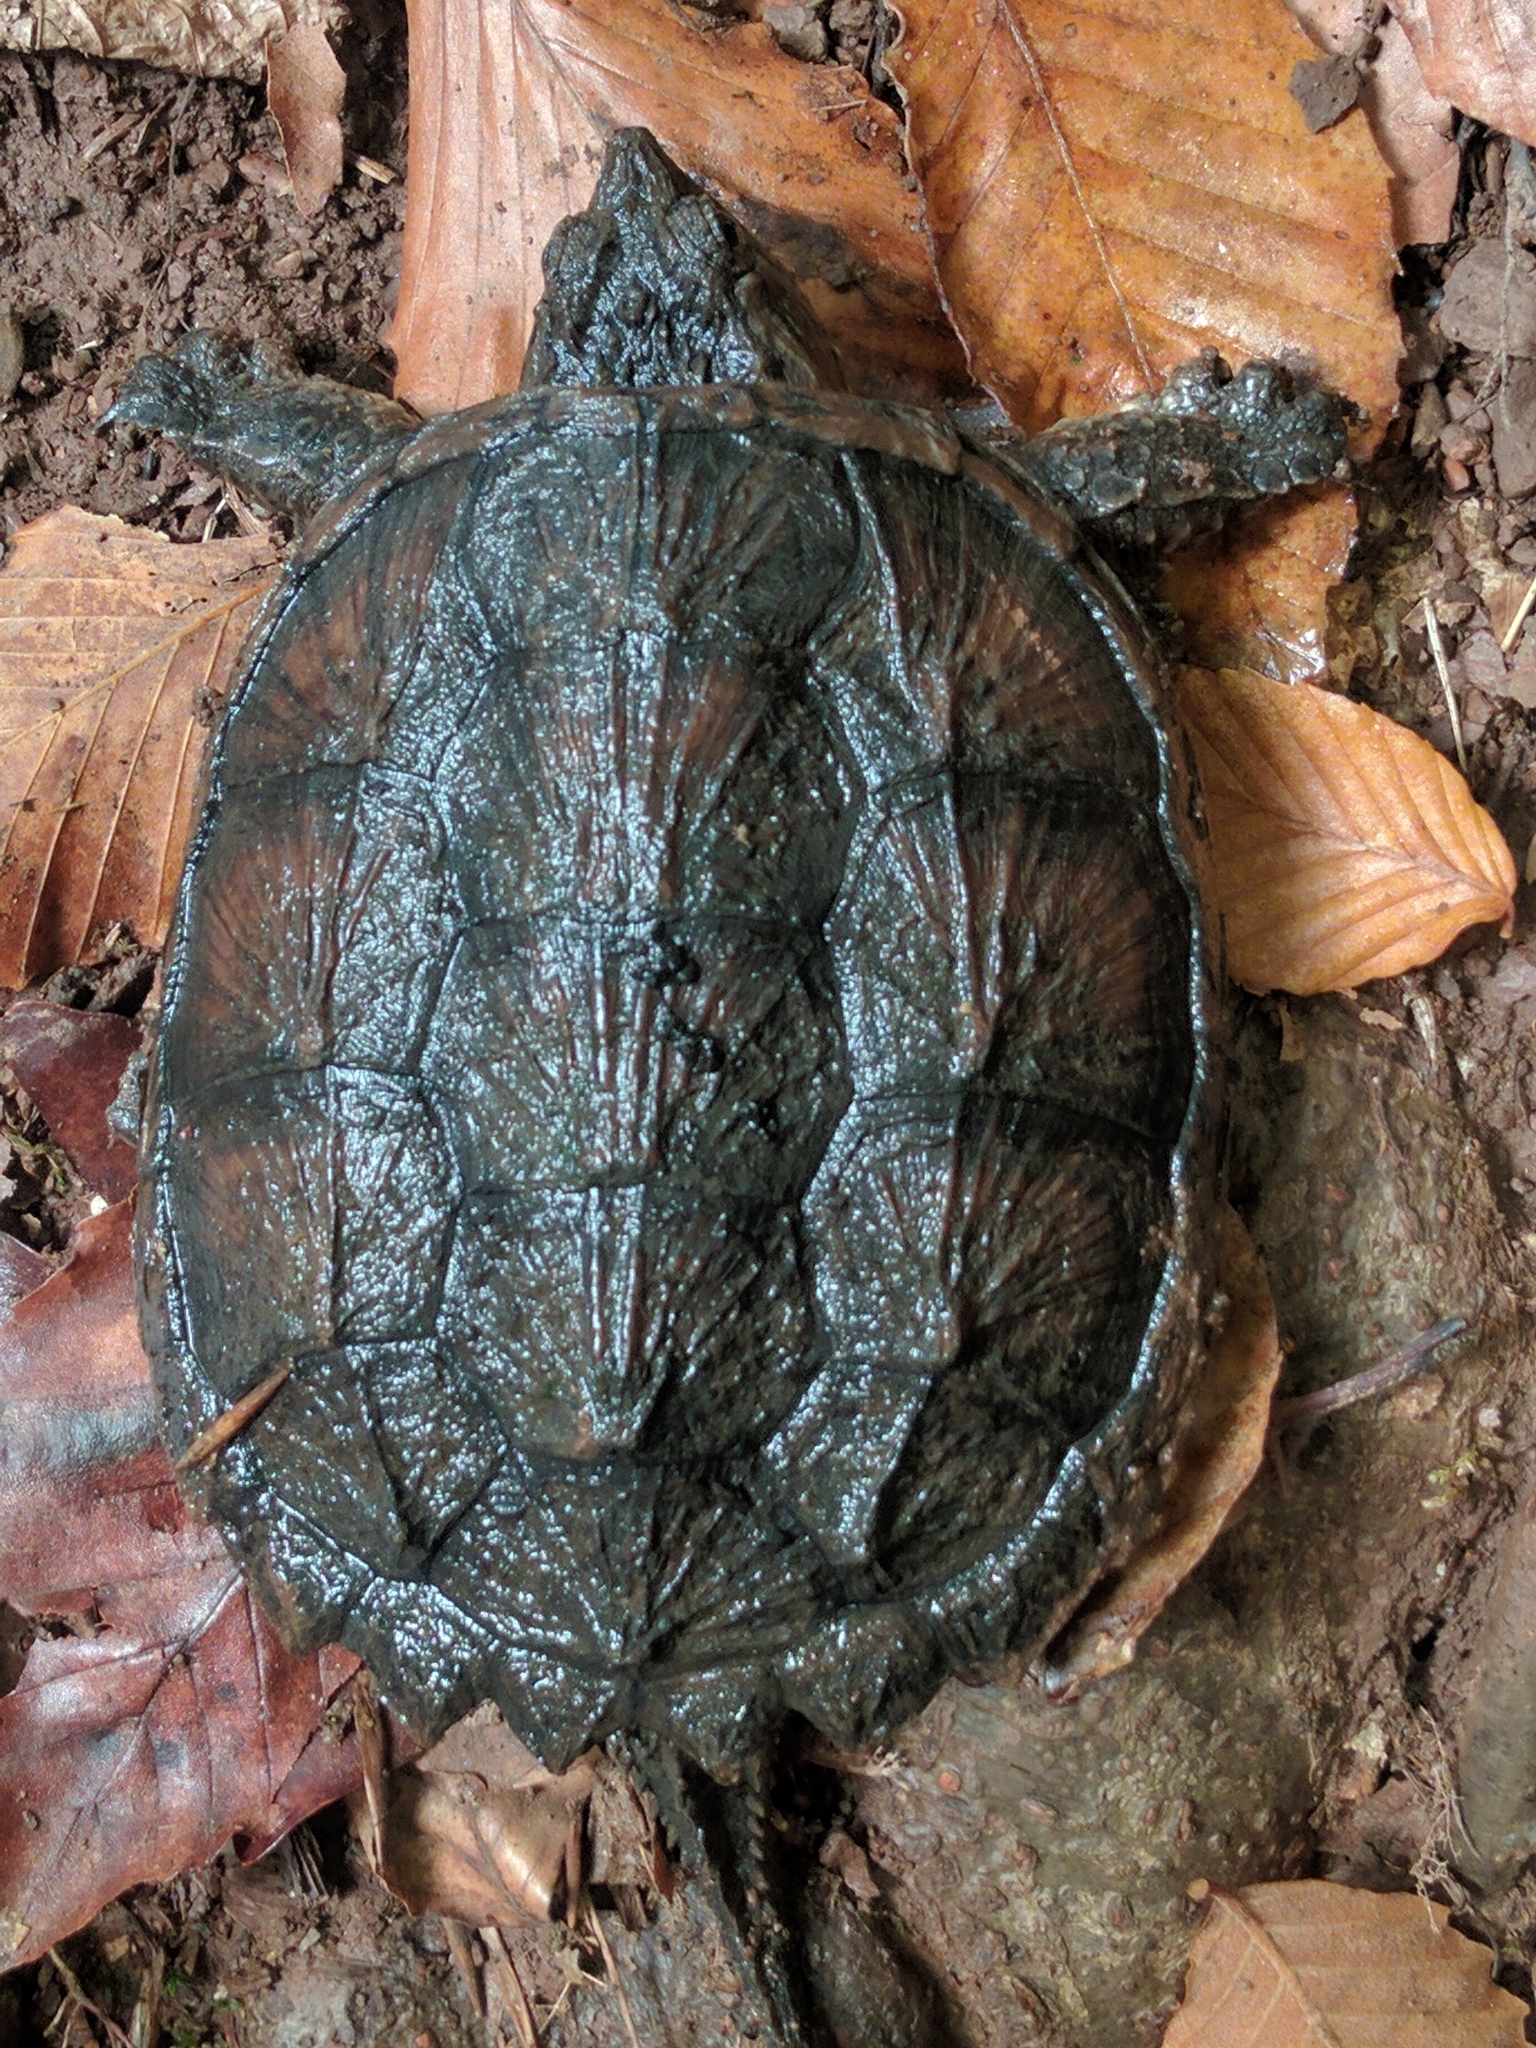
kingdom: Animalia
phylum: Chordata
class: Testudines
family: Chelydridae
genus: Chelydra
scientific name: Chelydra serpentina
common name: Common snapping turtle
